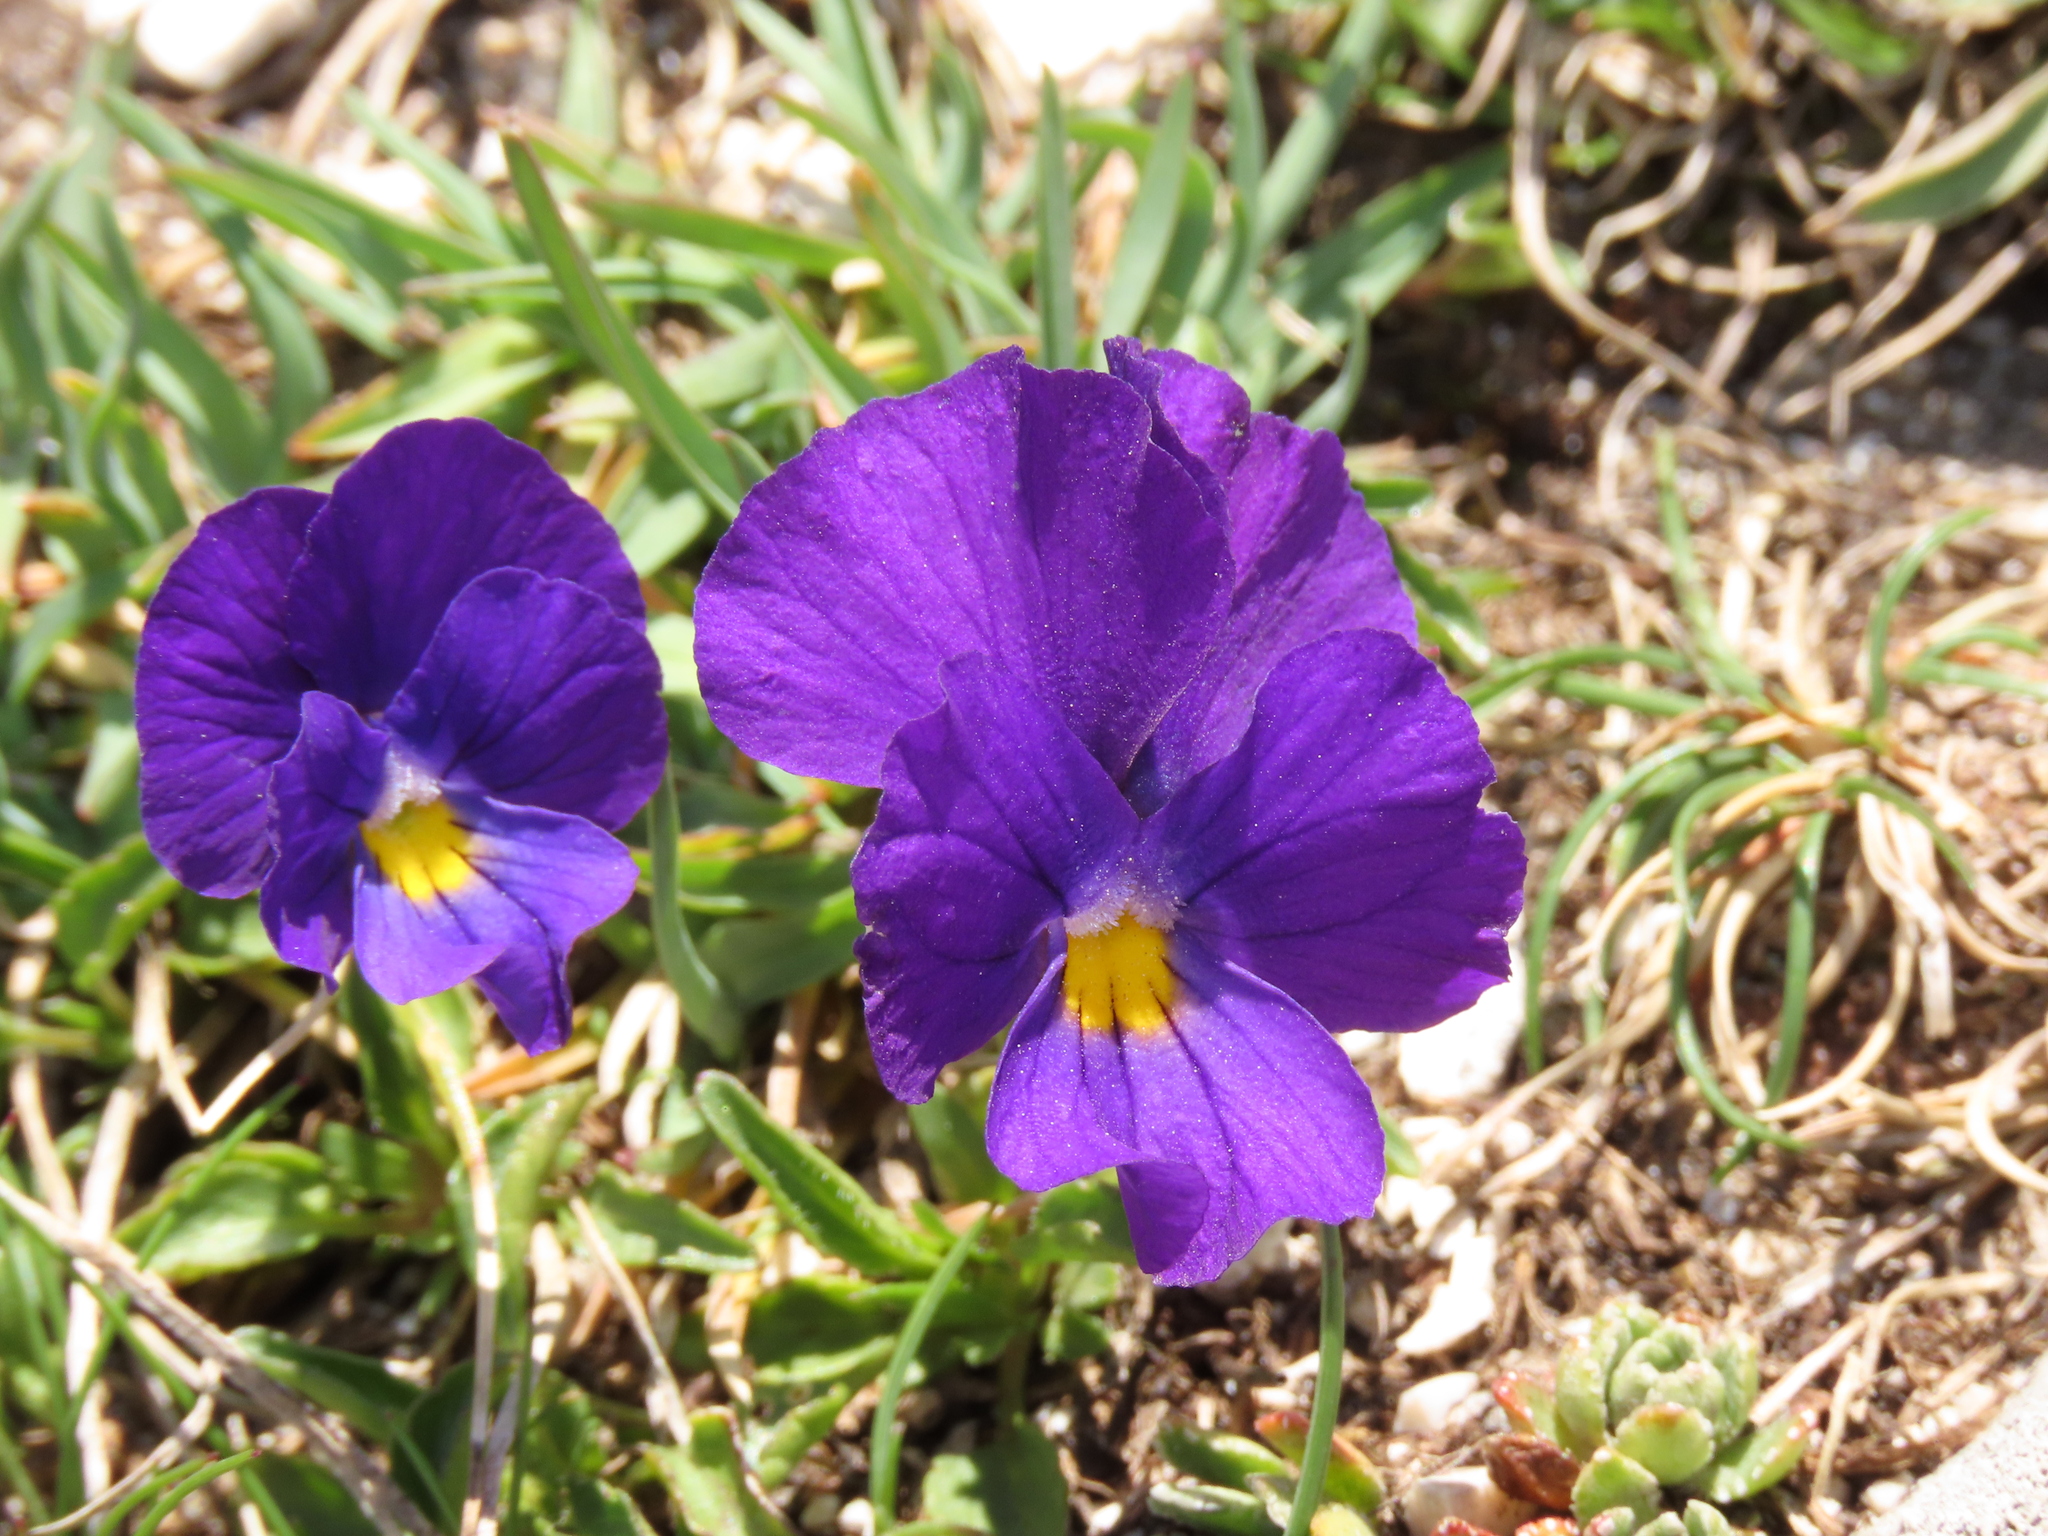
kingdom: Plantae
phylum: Tracheophyta
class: Magnoliopsida
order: Malpighiales
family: Violaceae
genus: Viola
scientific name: Viola eugeniae
